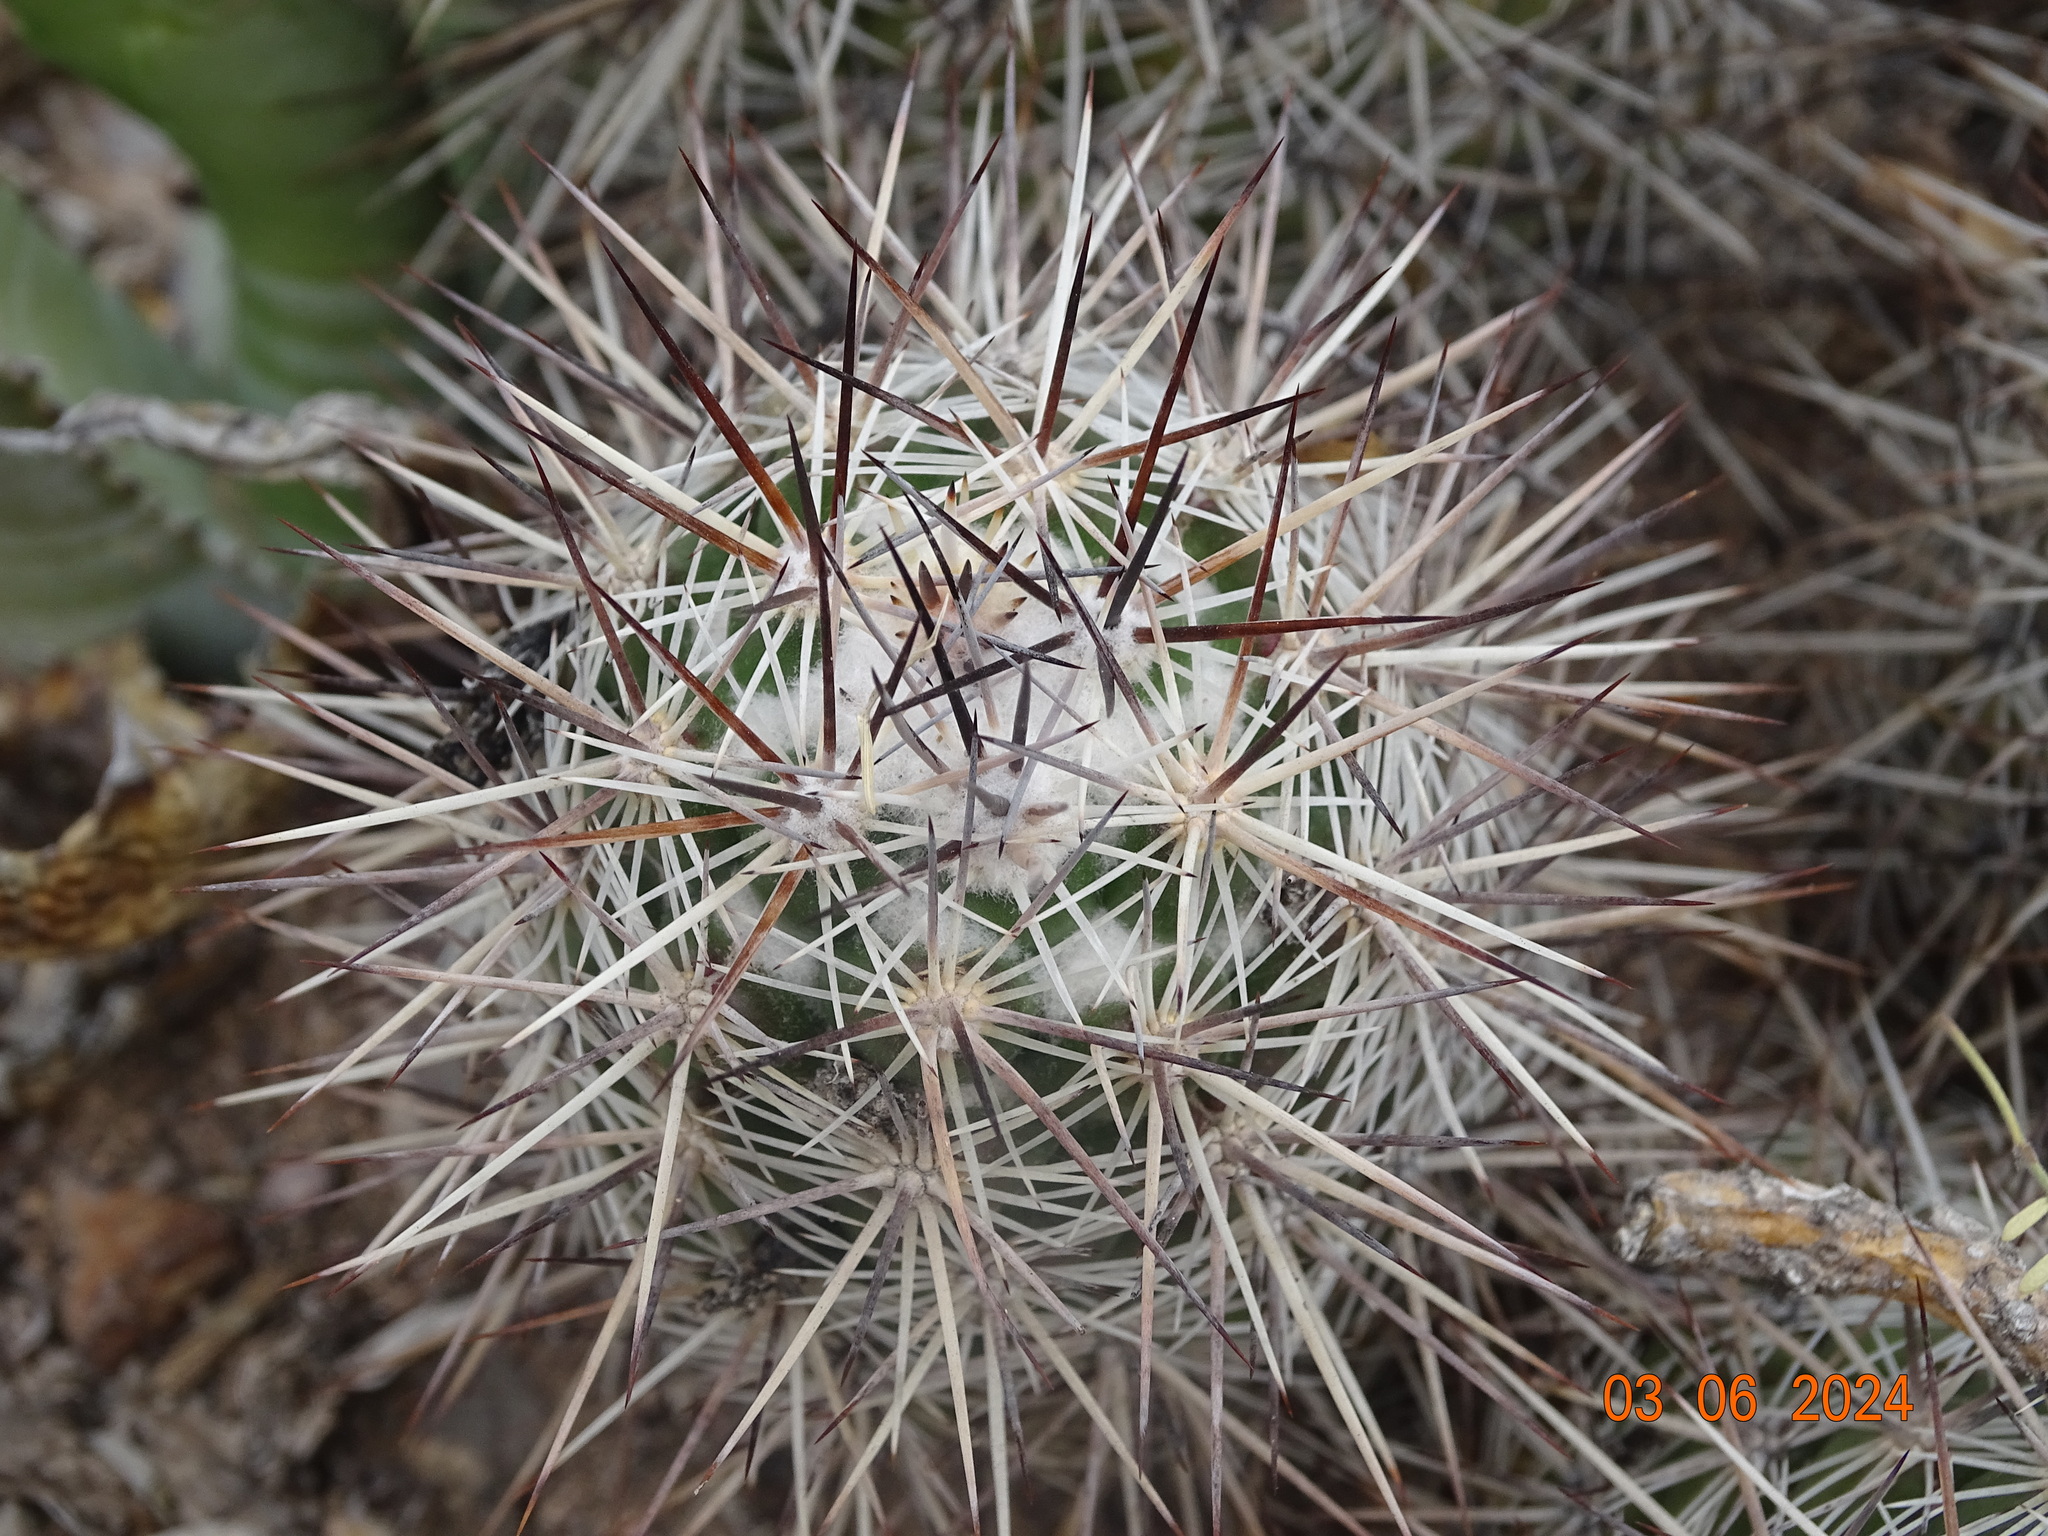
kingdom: Plantae
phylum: Tracheophyta
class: Magnoliopsida
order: Caryophyllales
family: Cactaceae
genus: Cochemiea
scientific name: Cochemiea conoidea
